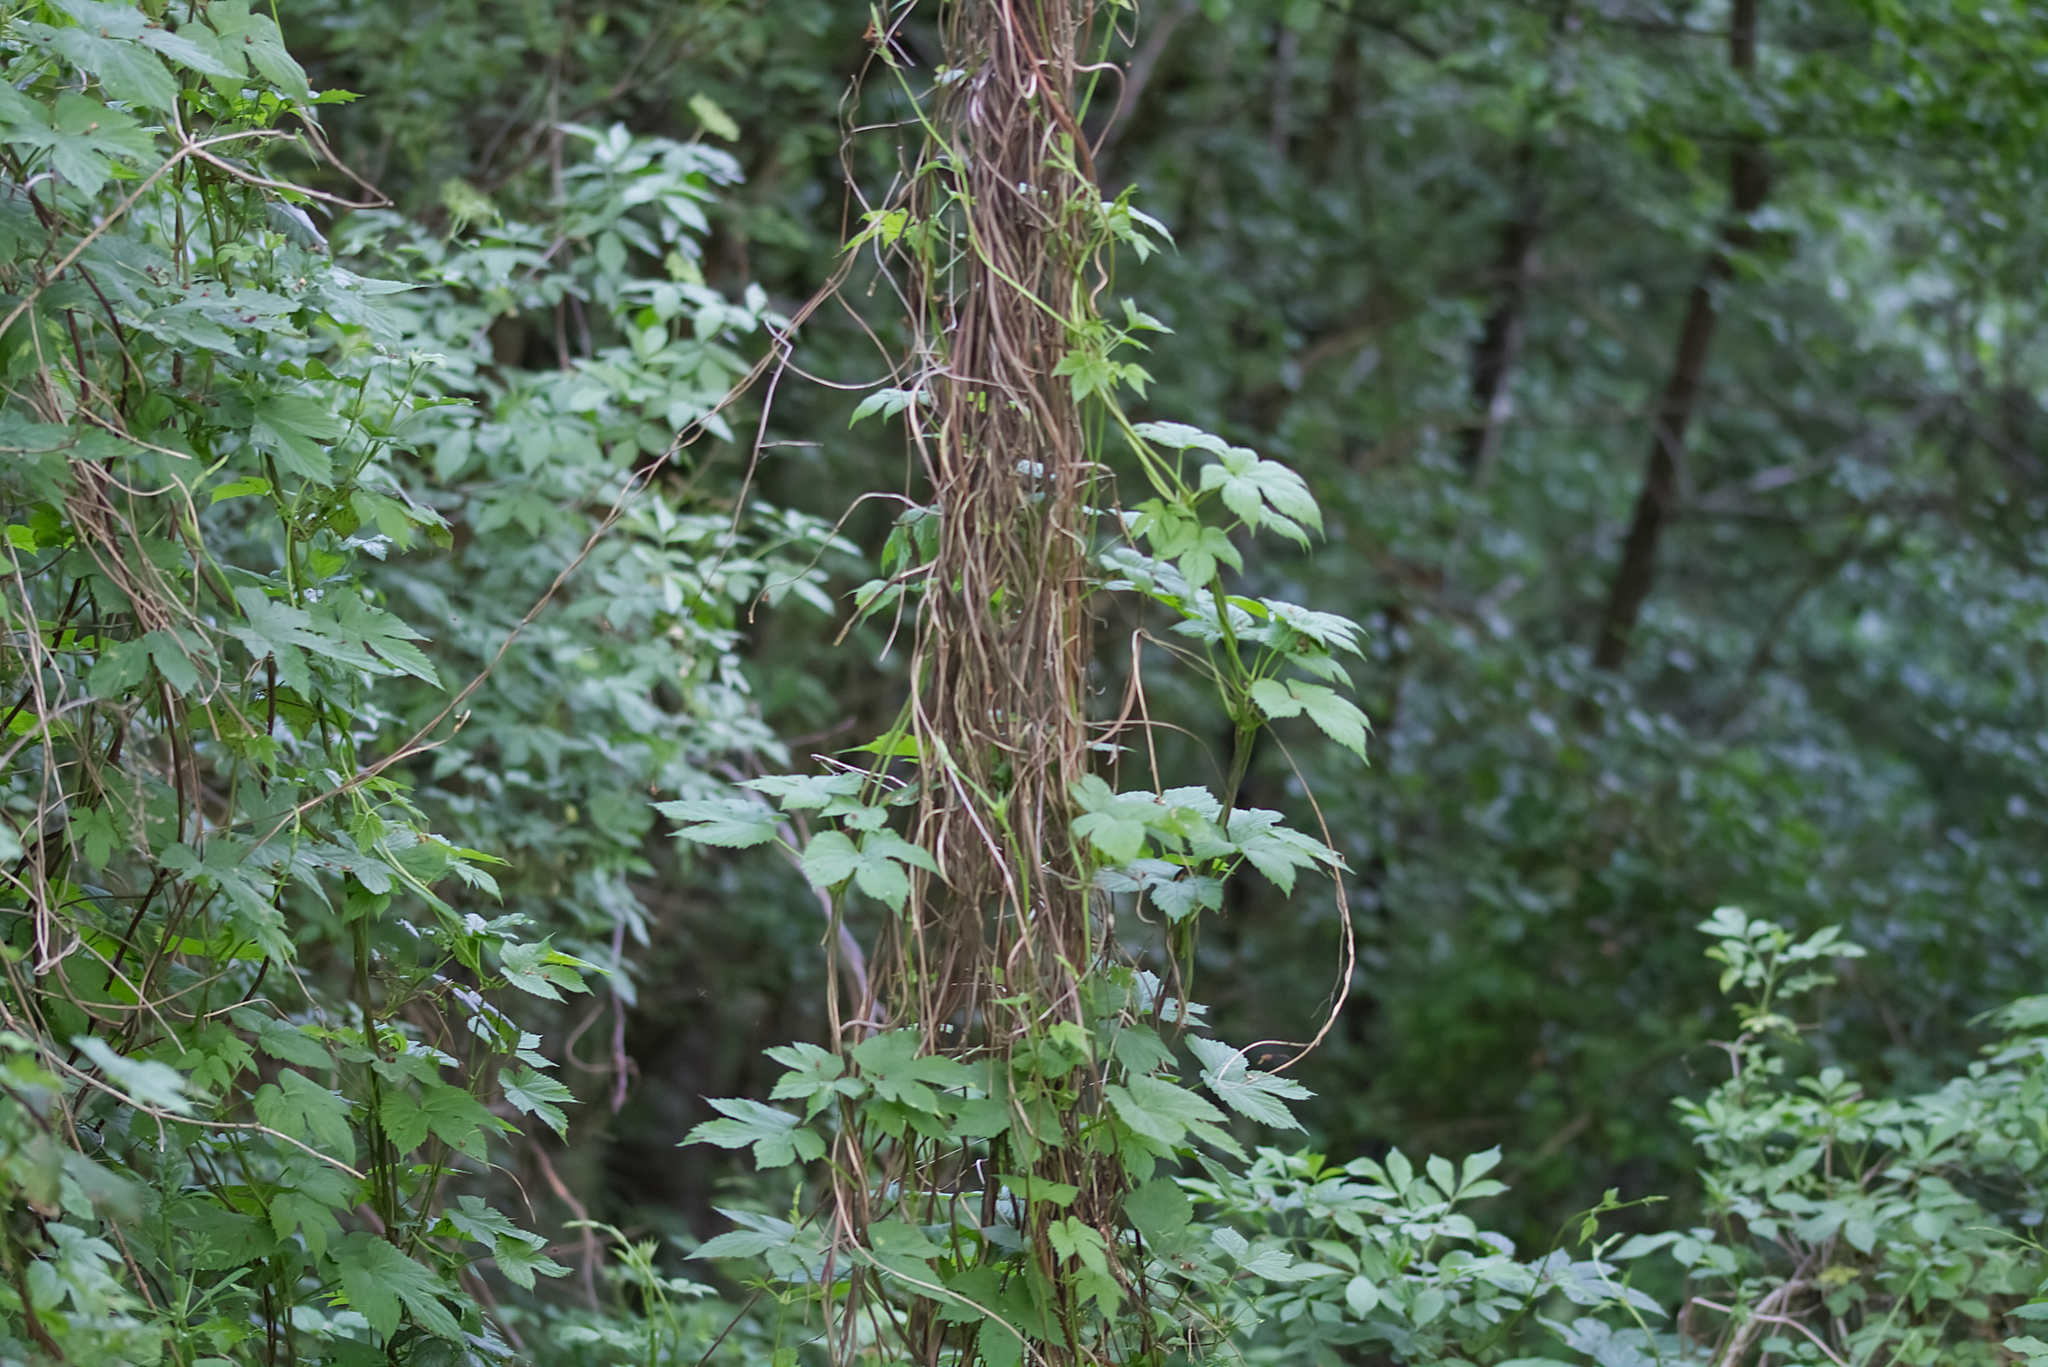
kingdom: Plantae
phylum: Tracheophyta
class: Magnoliopsida
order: Rosales
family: Cannabaceae
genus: Humulus
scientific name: Humulus lupulus
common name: Hop
